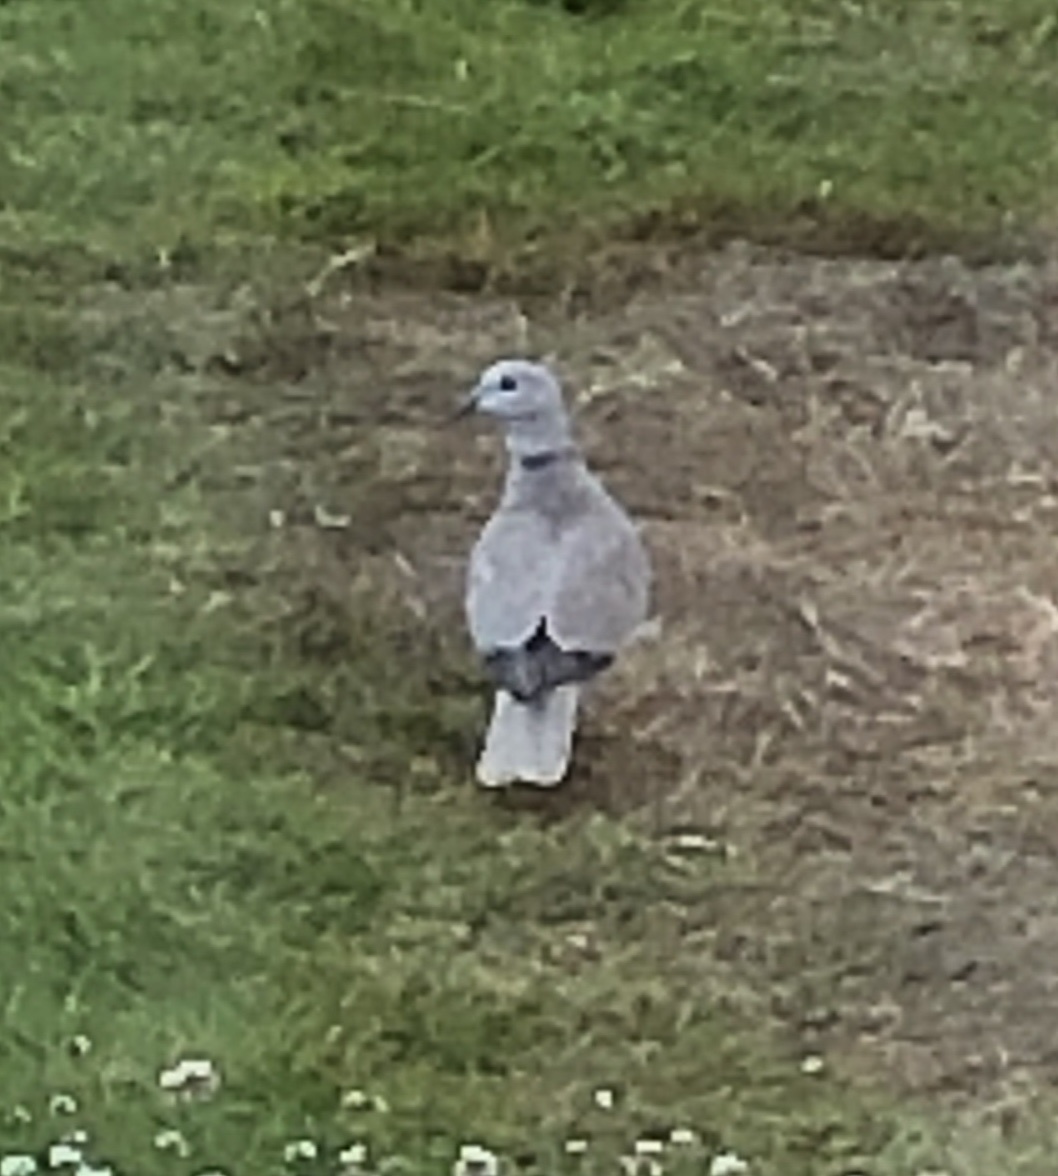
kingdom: Animalia
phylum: Chordata
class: Aves
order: Columbiformes
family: Columbidae
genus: Streptopelia
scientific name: Streptopelia decaocto
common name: Eurasian collared dove
